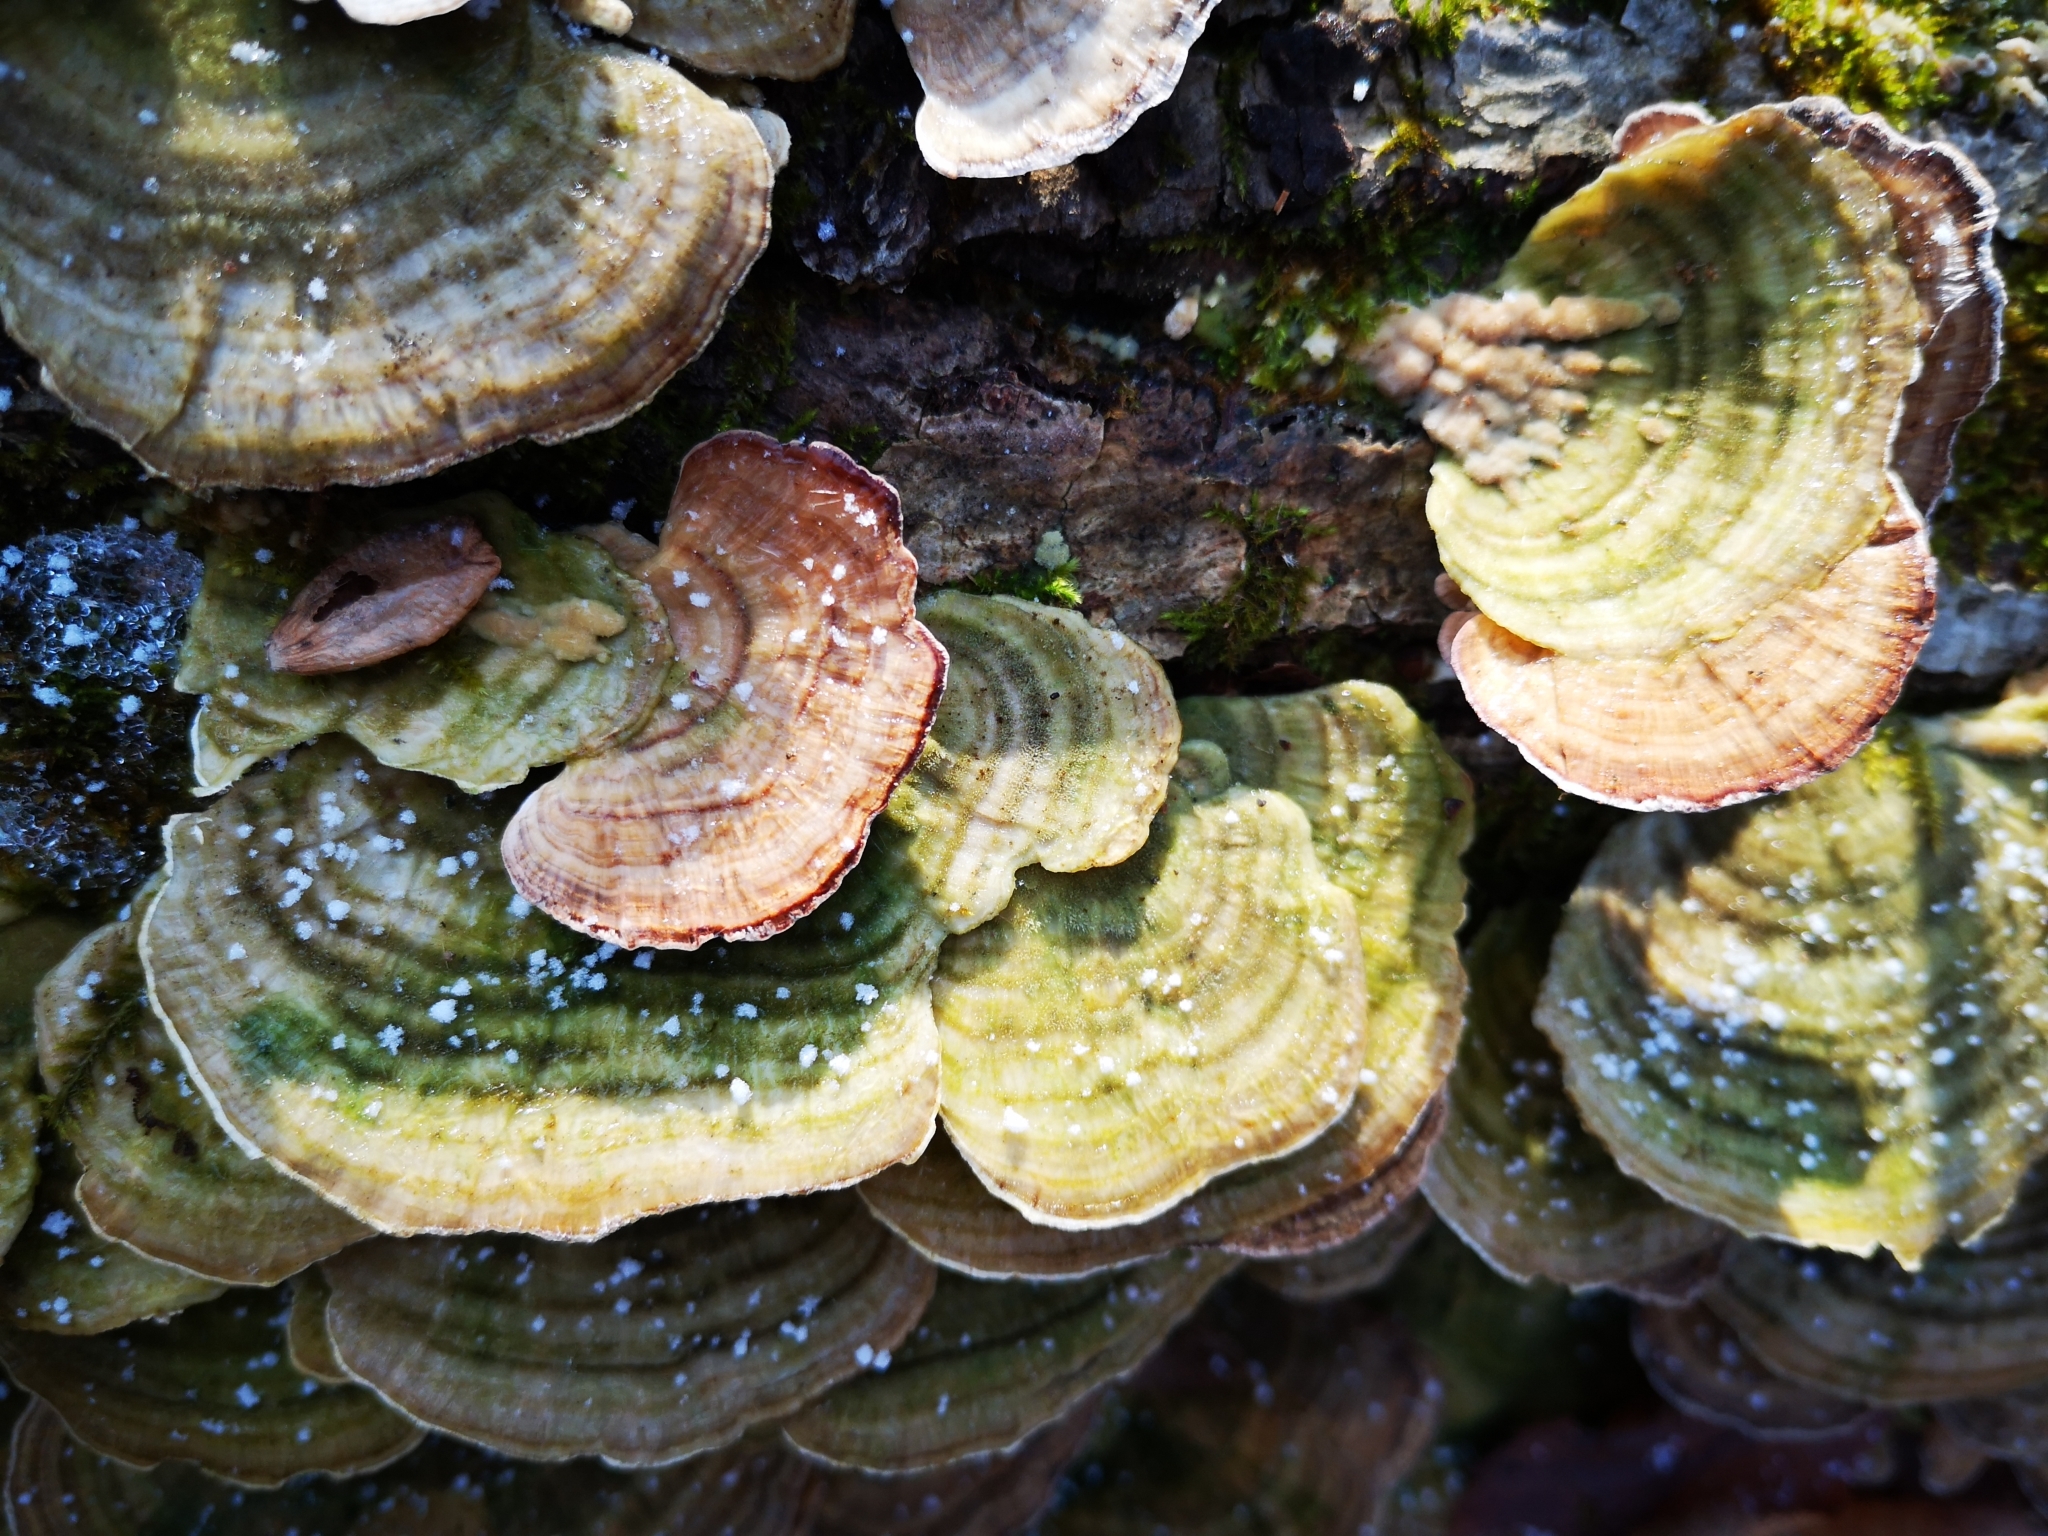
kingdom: Fungi
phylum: Basidiomycota
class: Agaricomycetes
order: Polyporales
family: Polyporaceae
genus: Trametes
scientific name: Trametes versicolor
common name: Turkeytail
